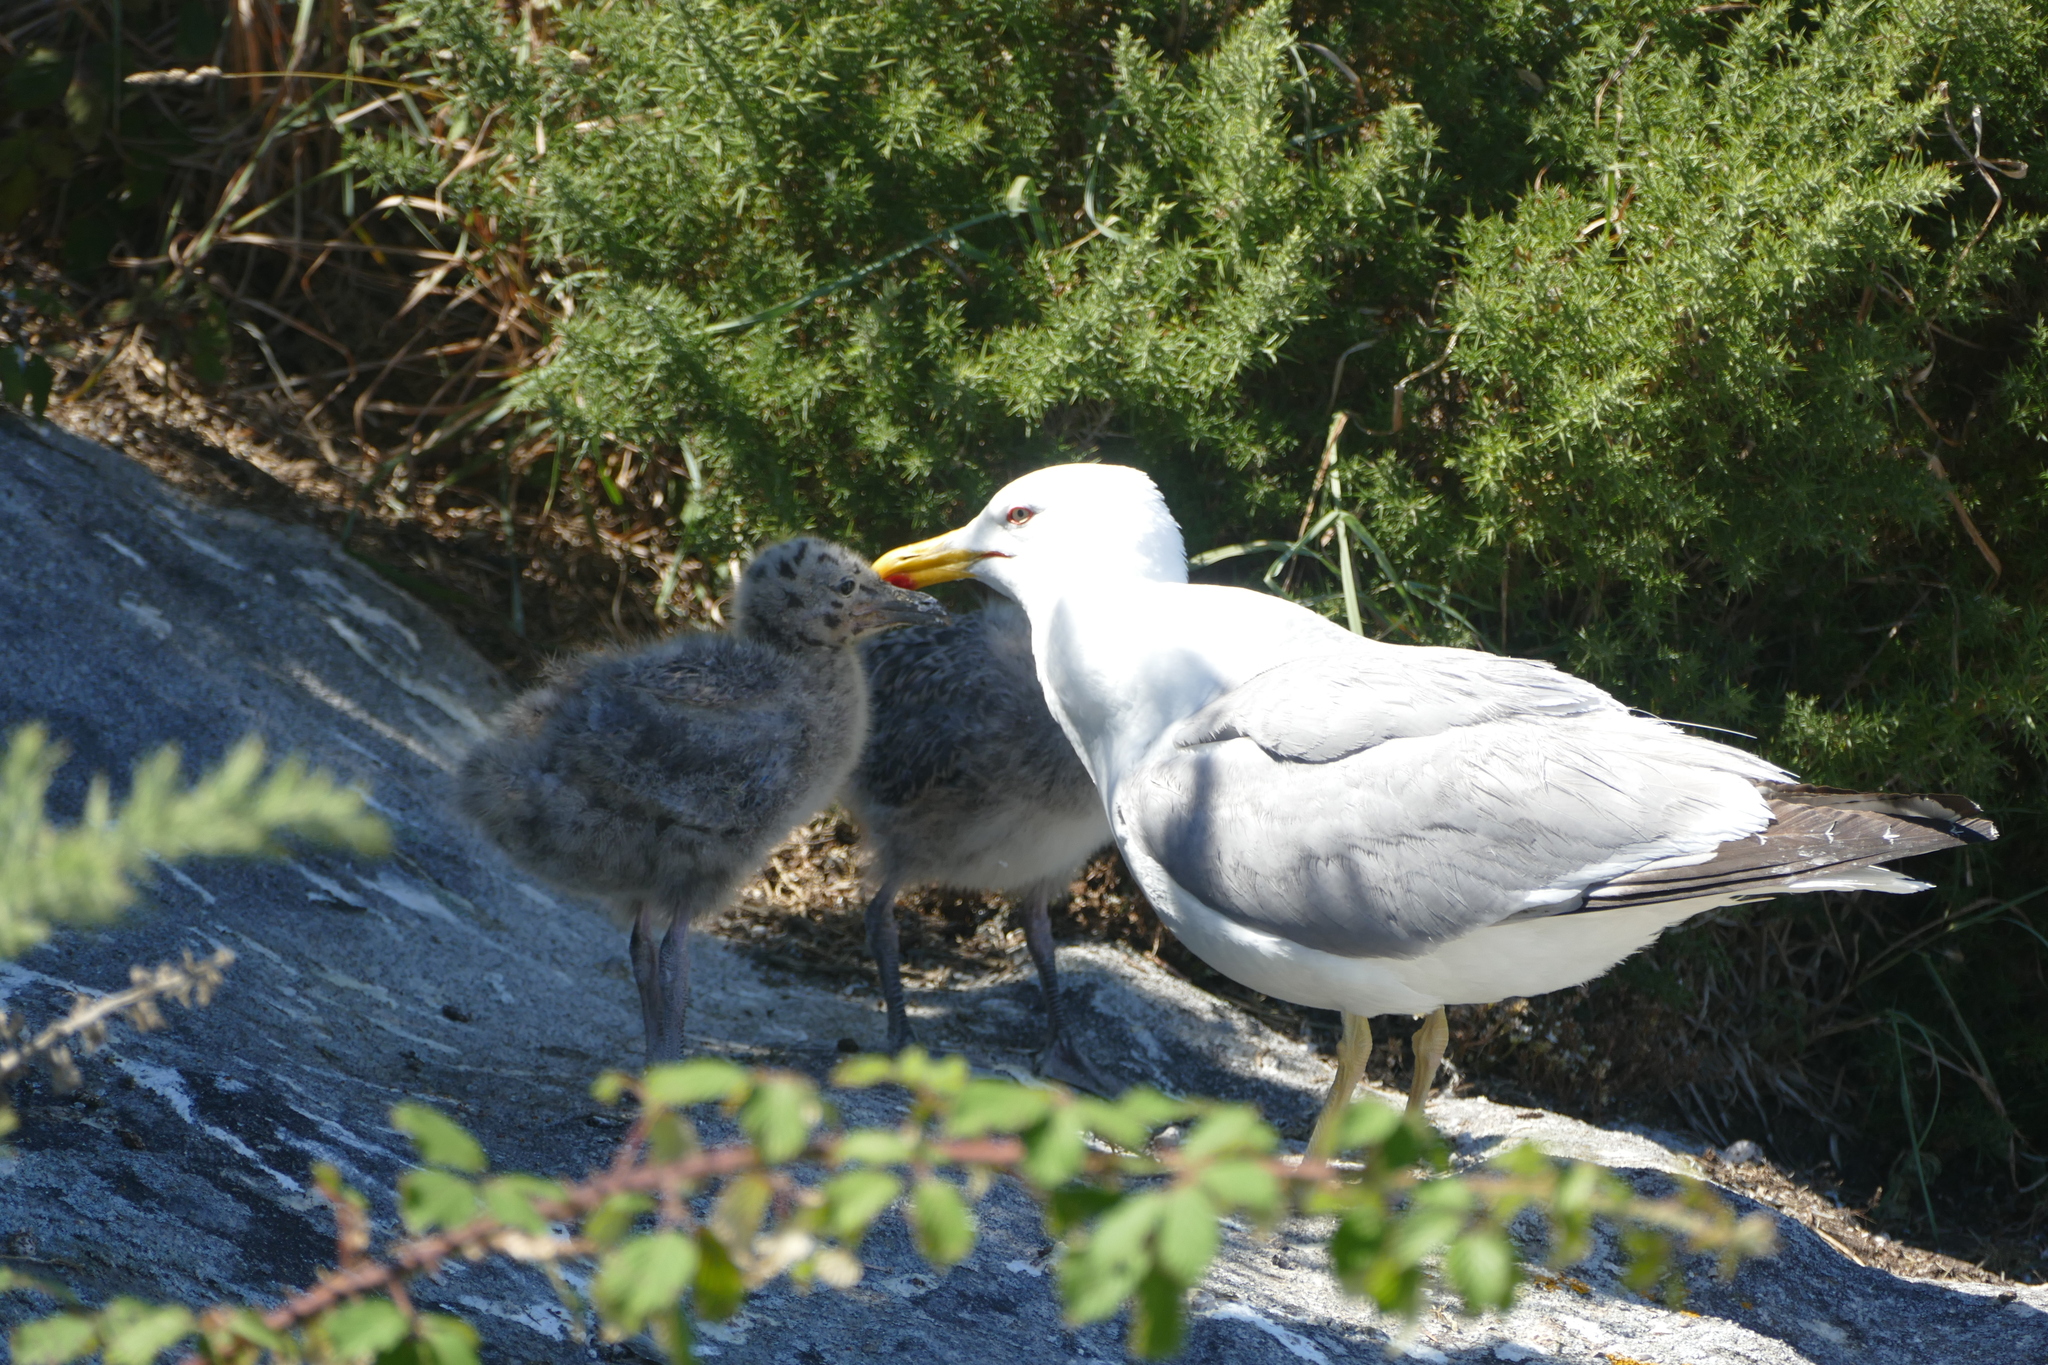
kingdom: Animalia
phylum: Chordata
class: Aves
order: Charadriiformes
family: Laridae
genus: Larus
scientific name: Larus michahellis
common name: Yellow-legged gull
